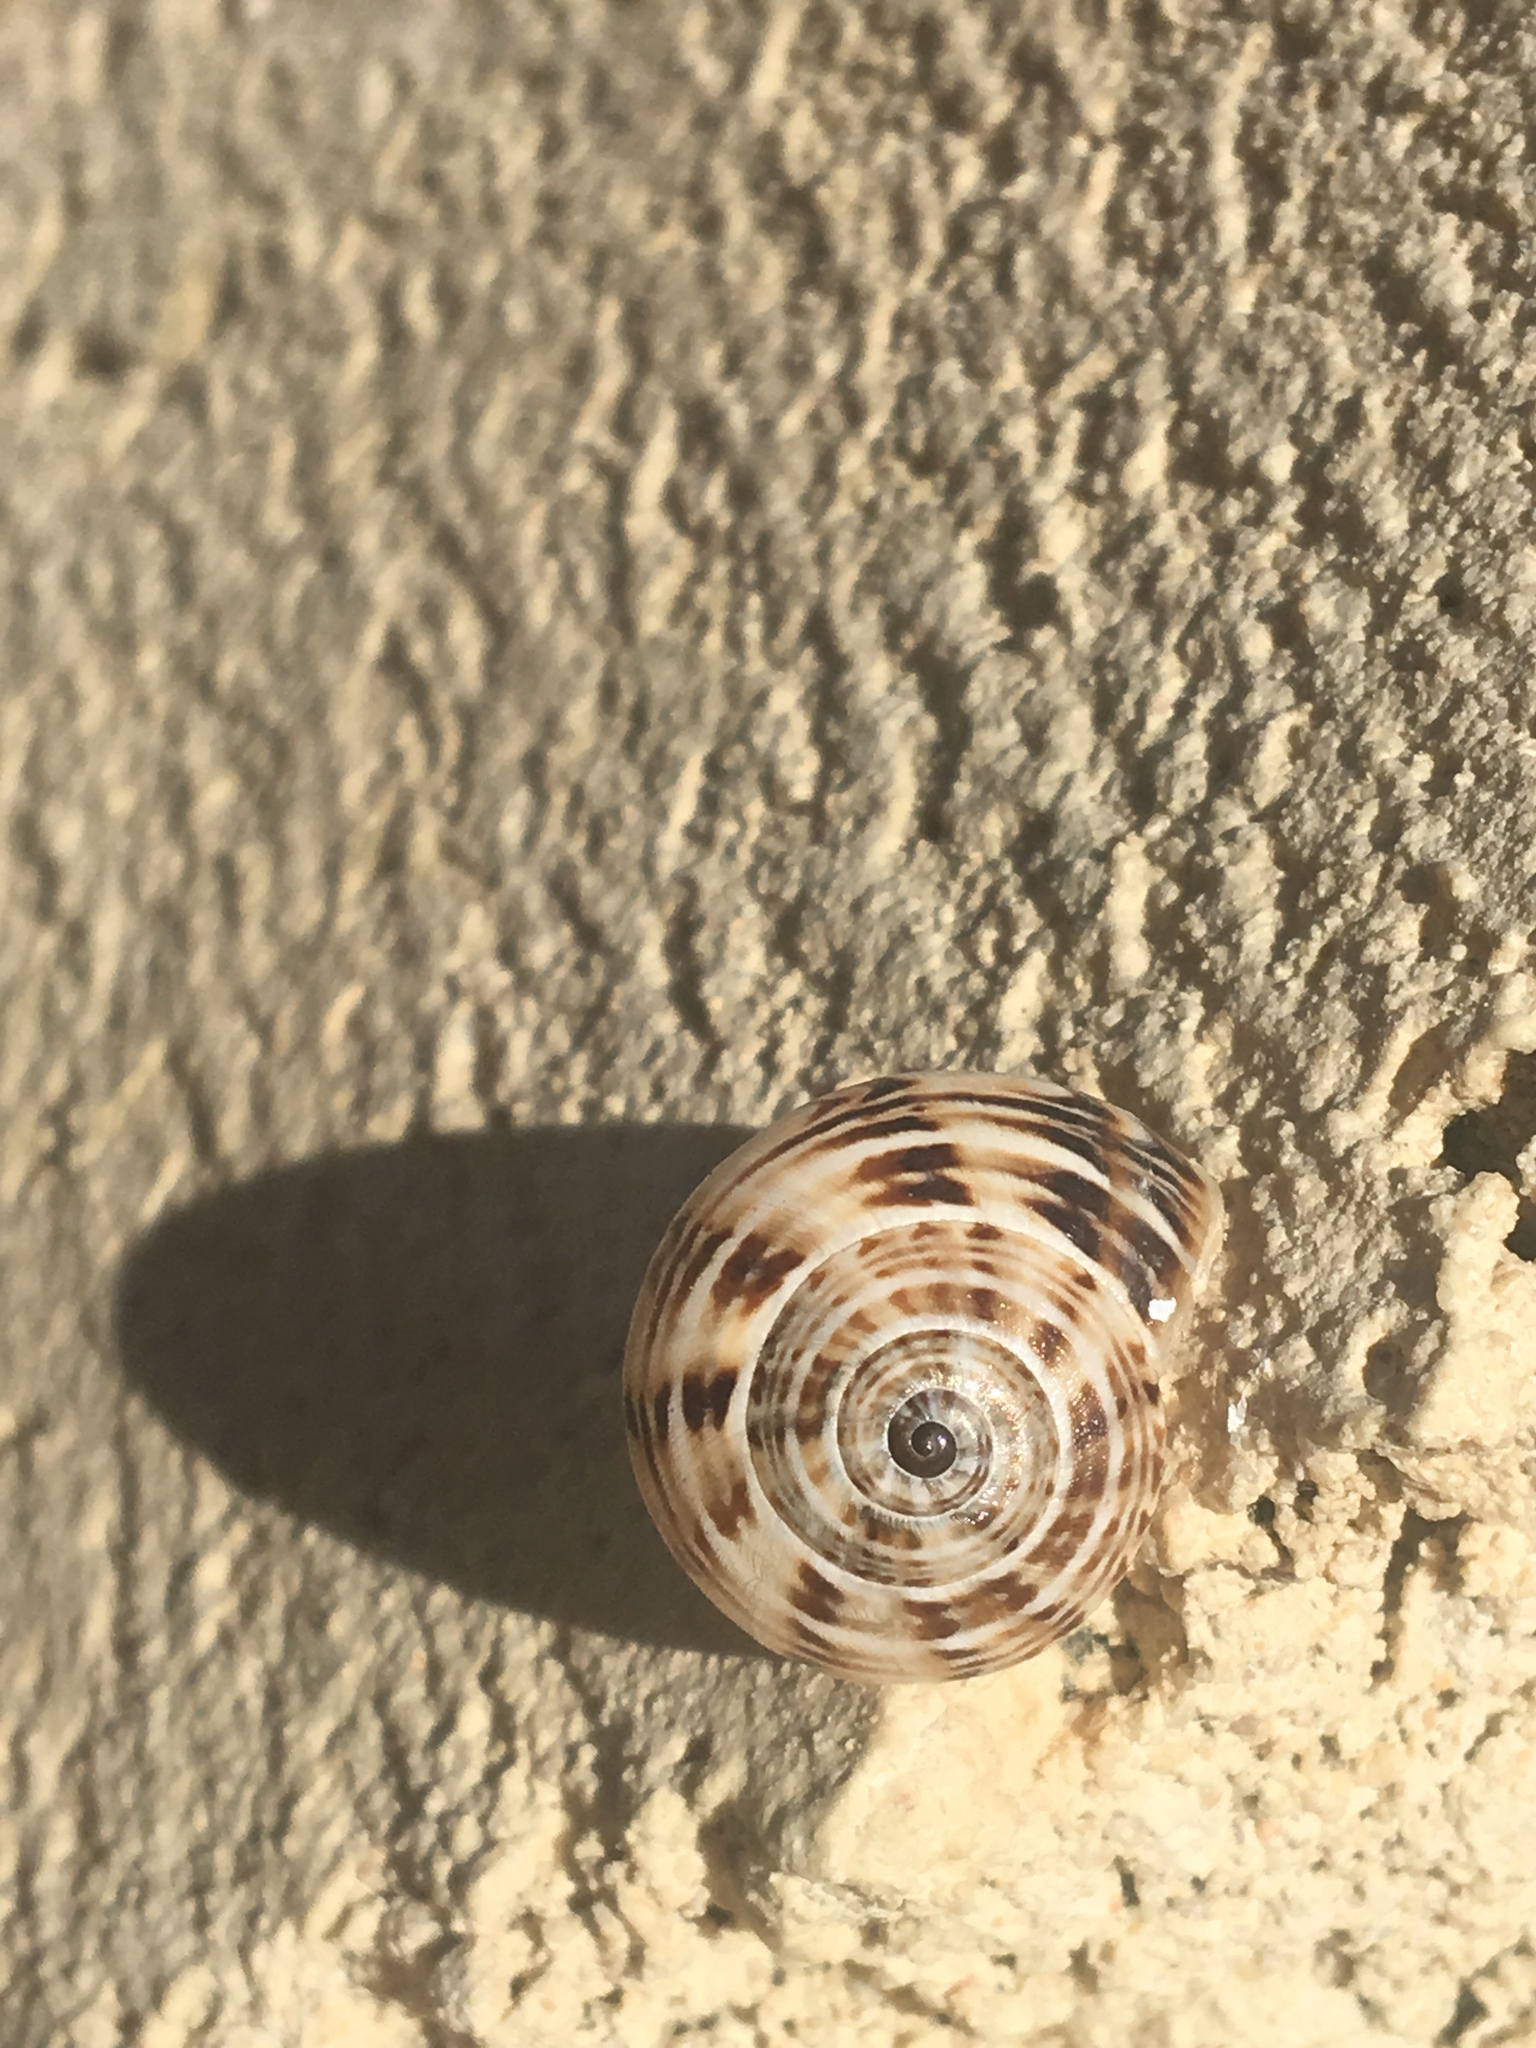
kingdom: Animalia
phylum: Mollusca
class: Gastropoda
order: Stylommatophora
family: Helicidae
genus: Theba
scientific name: Theba pisana
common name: White snail
